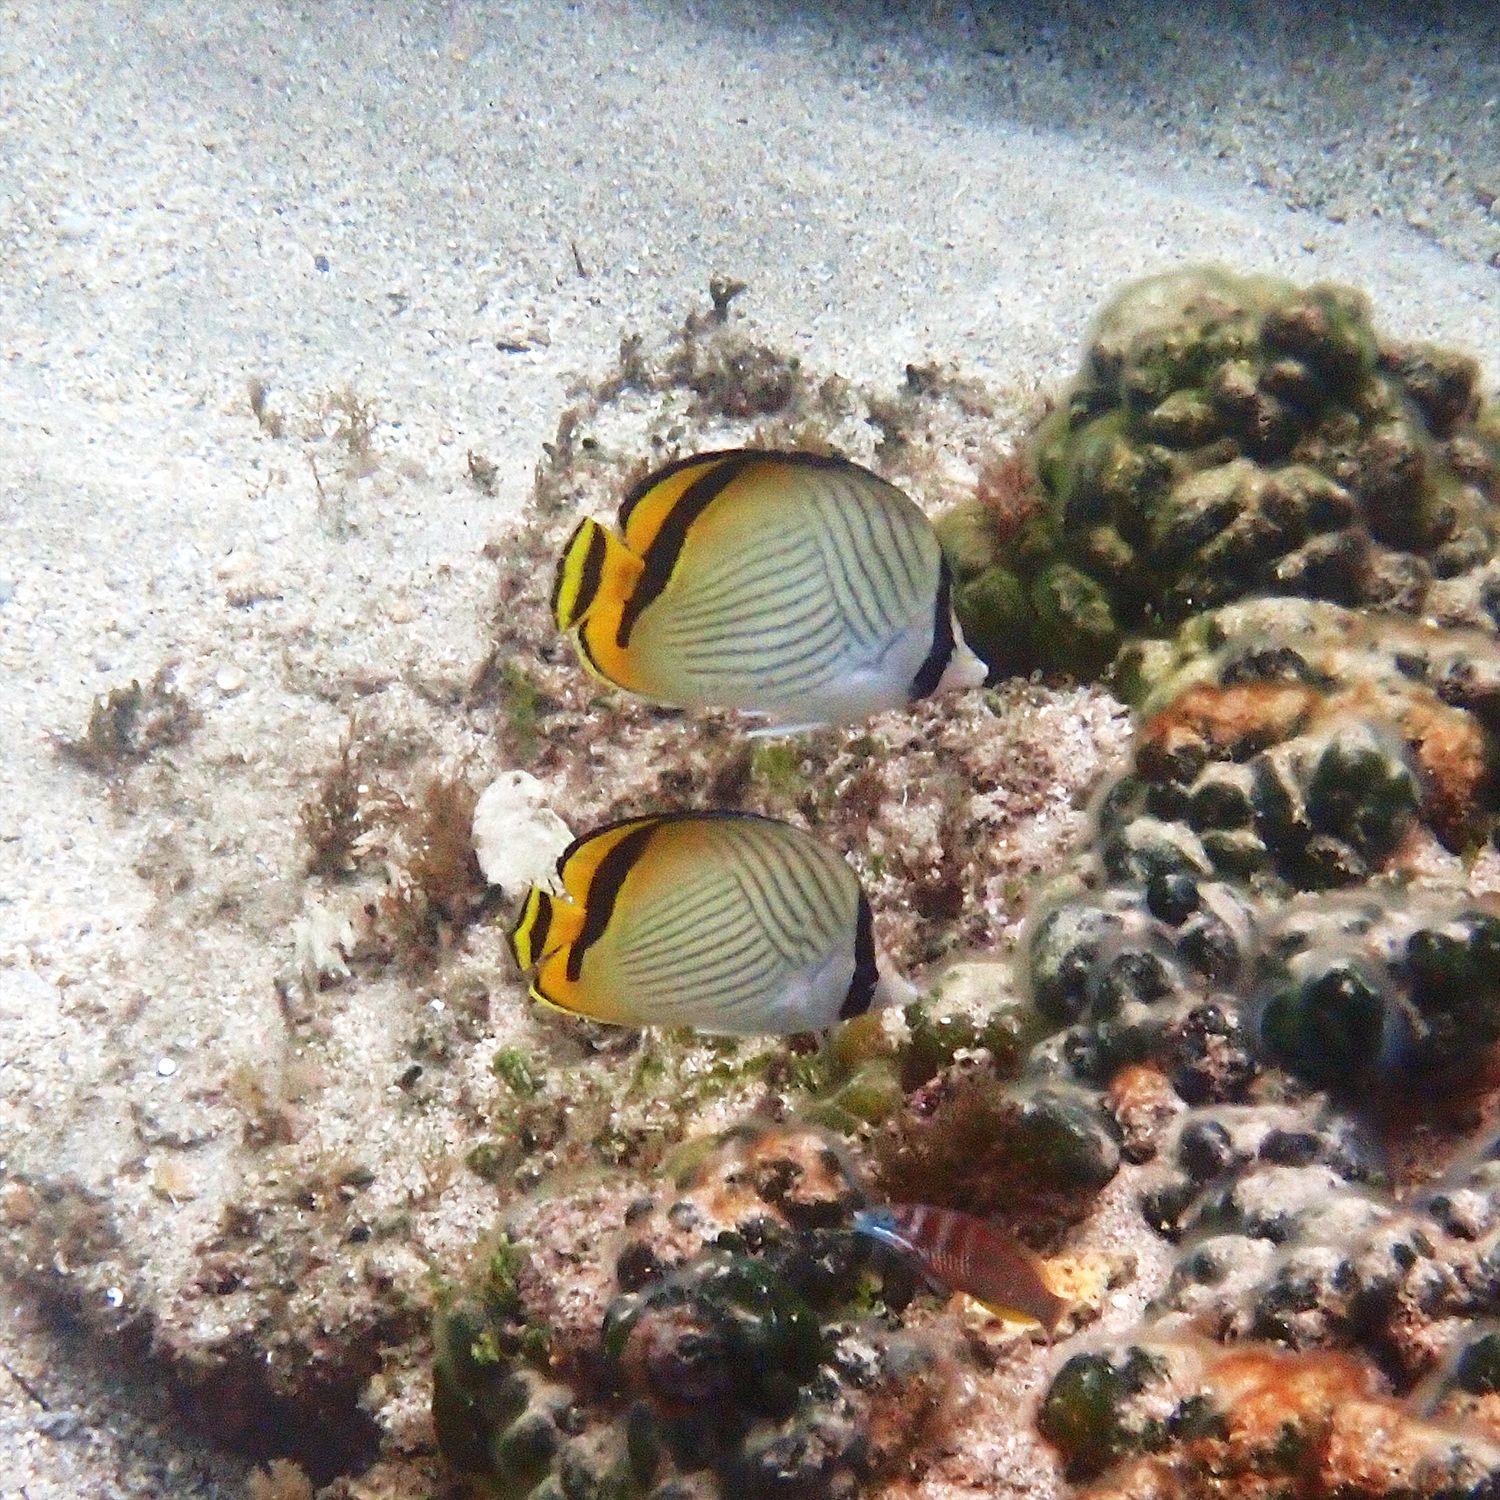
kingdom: Animalia
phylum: Chordata
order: Perciformes
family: Chaetodontidae
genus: Chaetodon
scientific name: Chaetodon vagabundus
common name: Vagabond butterflyfish
